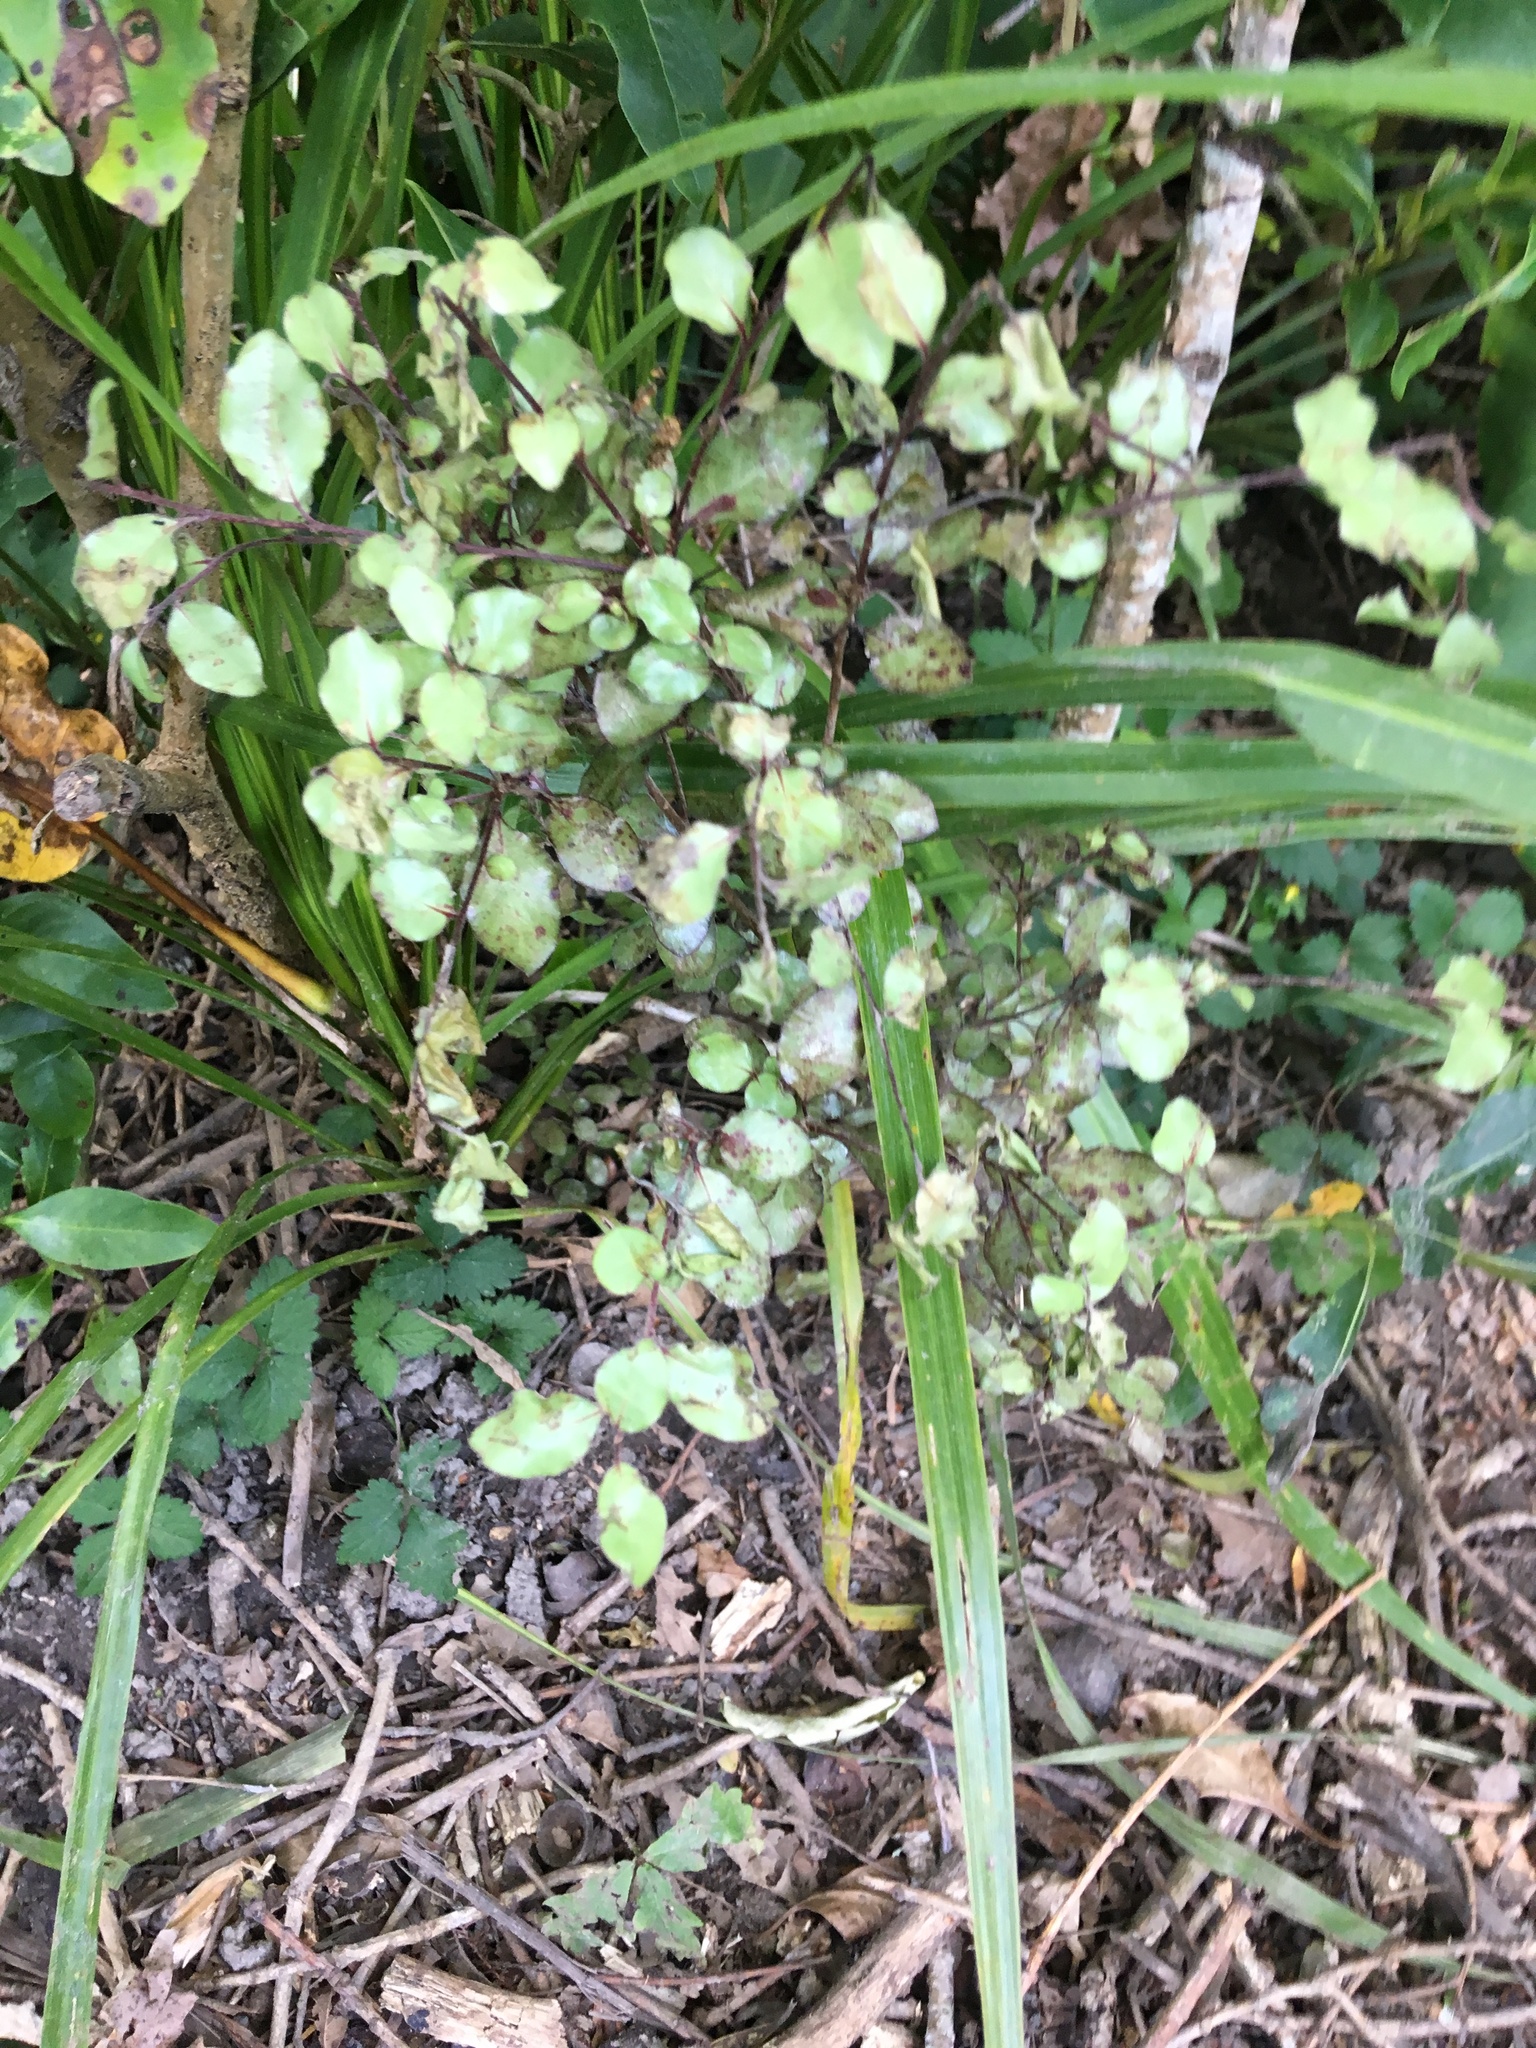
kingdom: Plantae
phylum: Tracheophyta
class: Magnoliopsida
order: Rosales
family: Rosaceae
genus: Potentilla
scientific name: Potentilla indica
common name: Yellow-flowered strawberry
